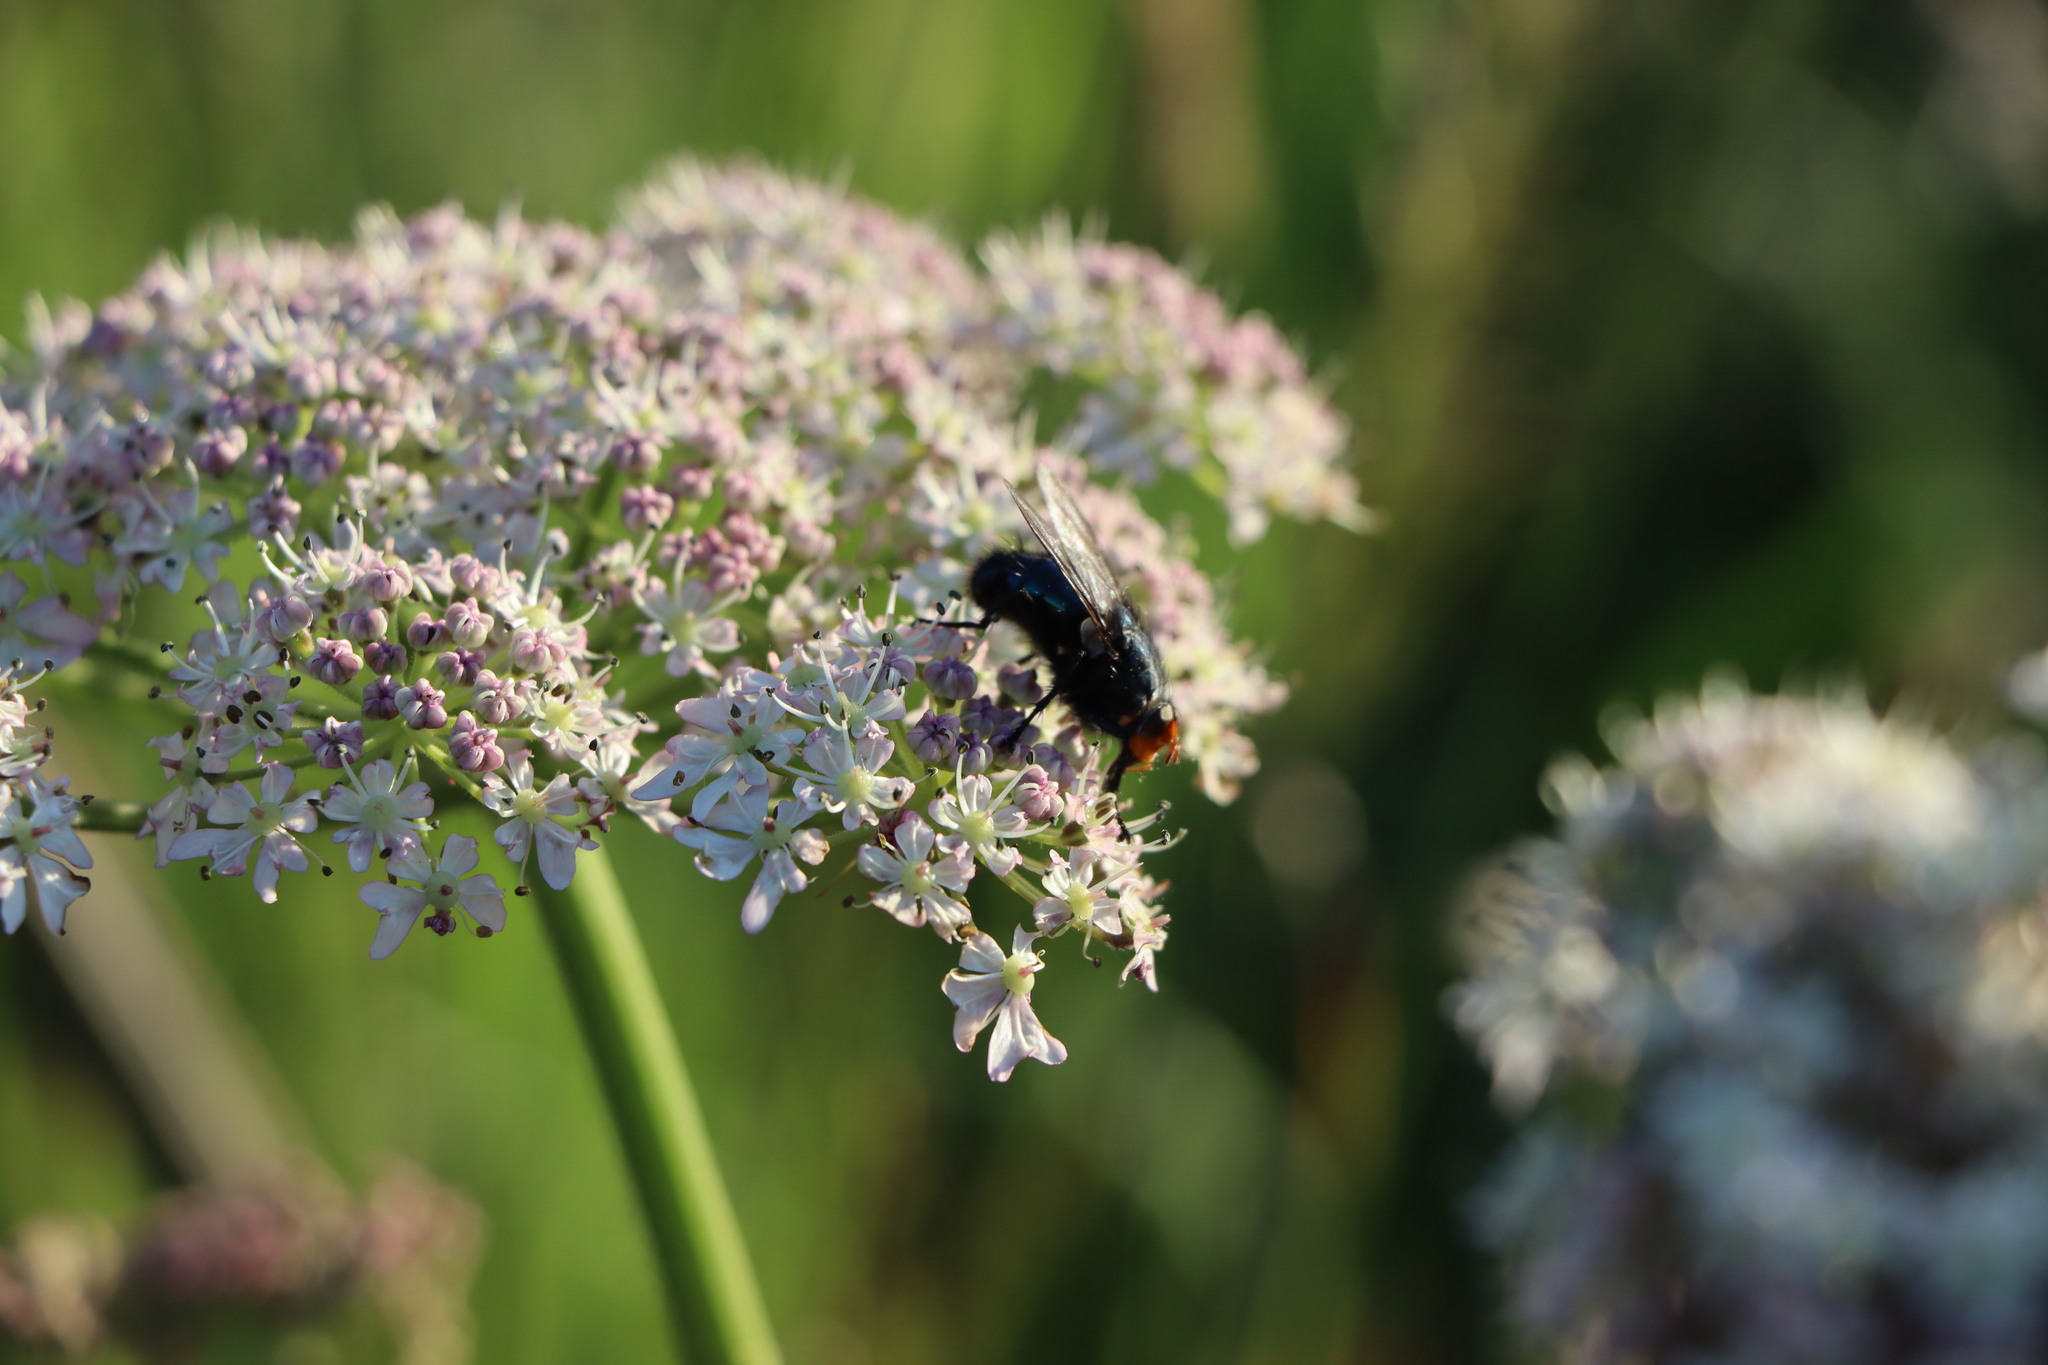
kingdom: Animalia
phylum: Arthropoda
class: Insecta
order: Diptera
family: Calliphoridae
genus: Cynomya
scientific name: Cynomya mortuorum
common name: Bluebottle blow fly
